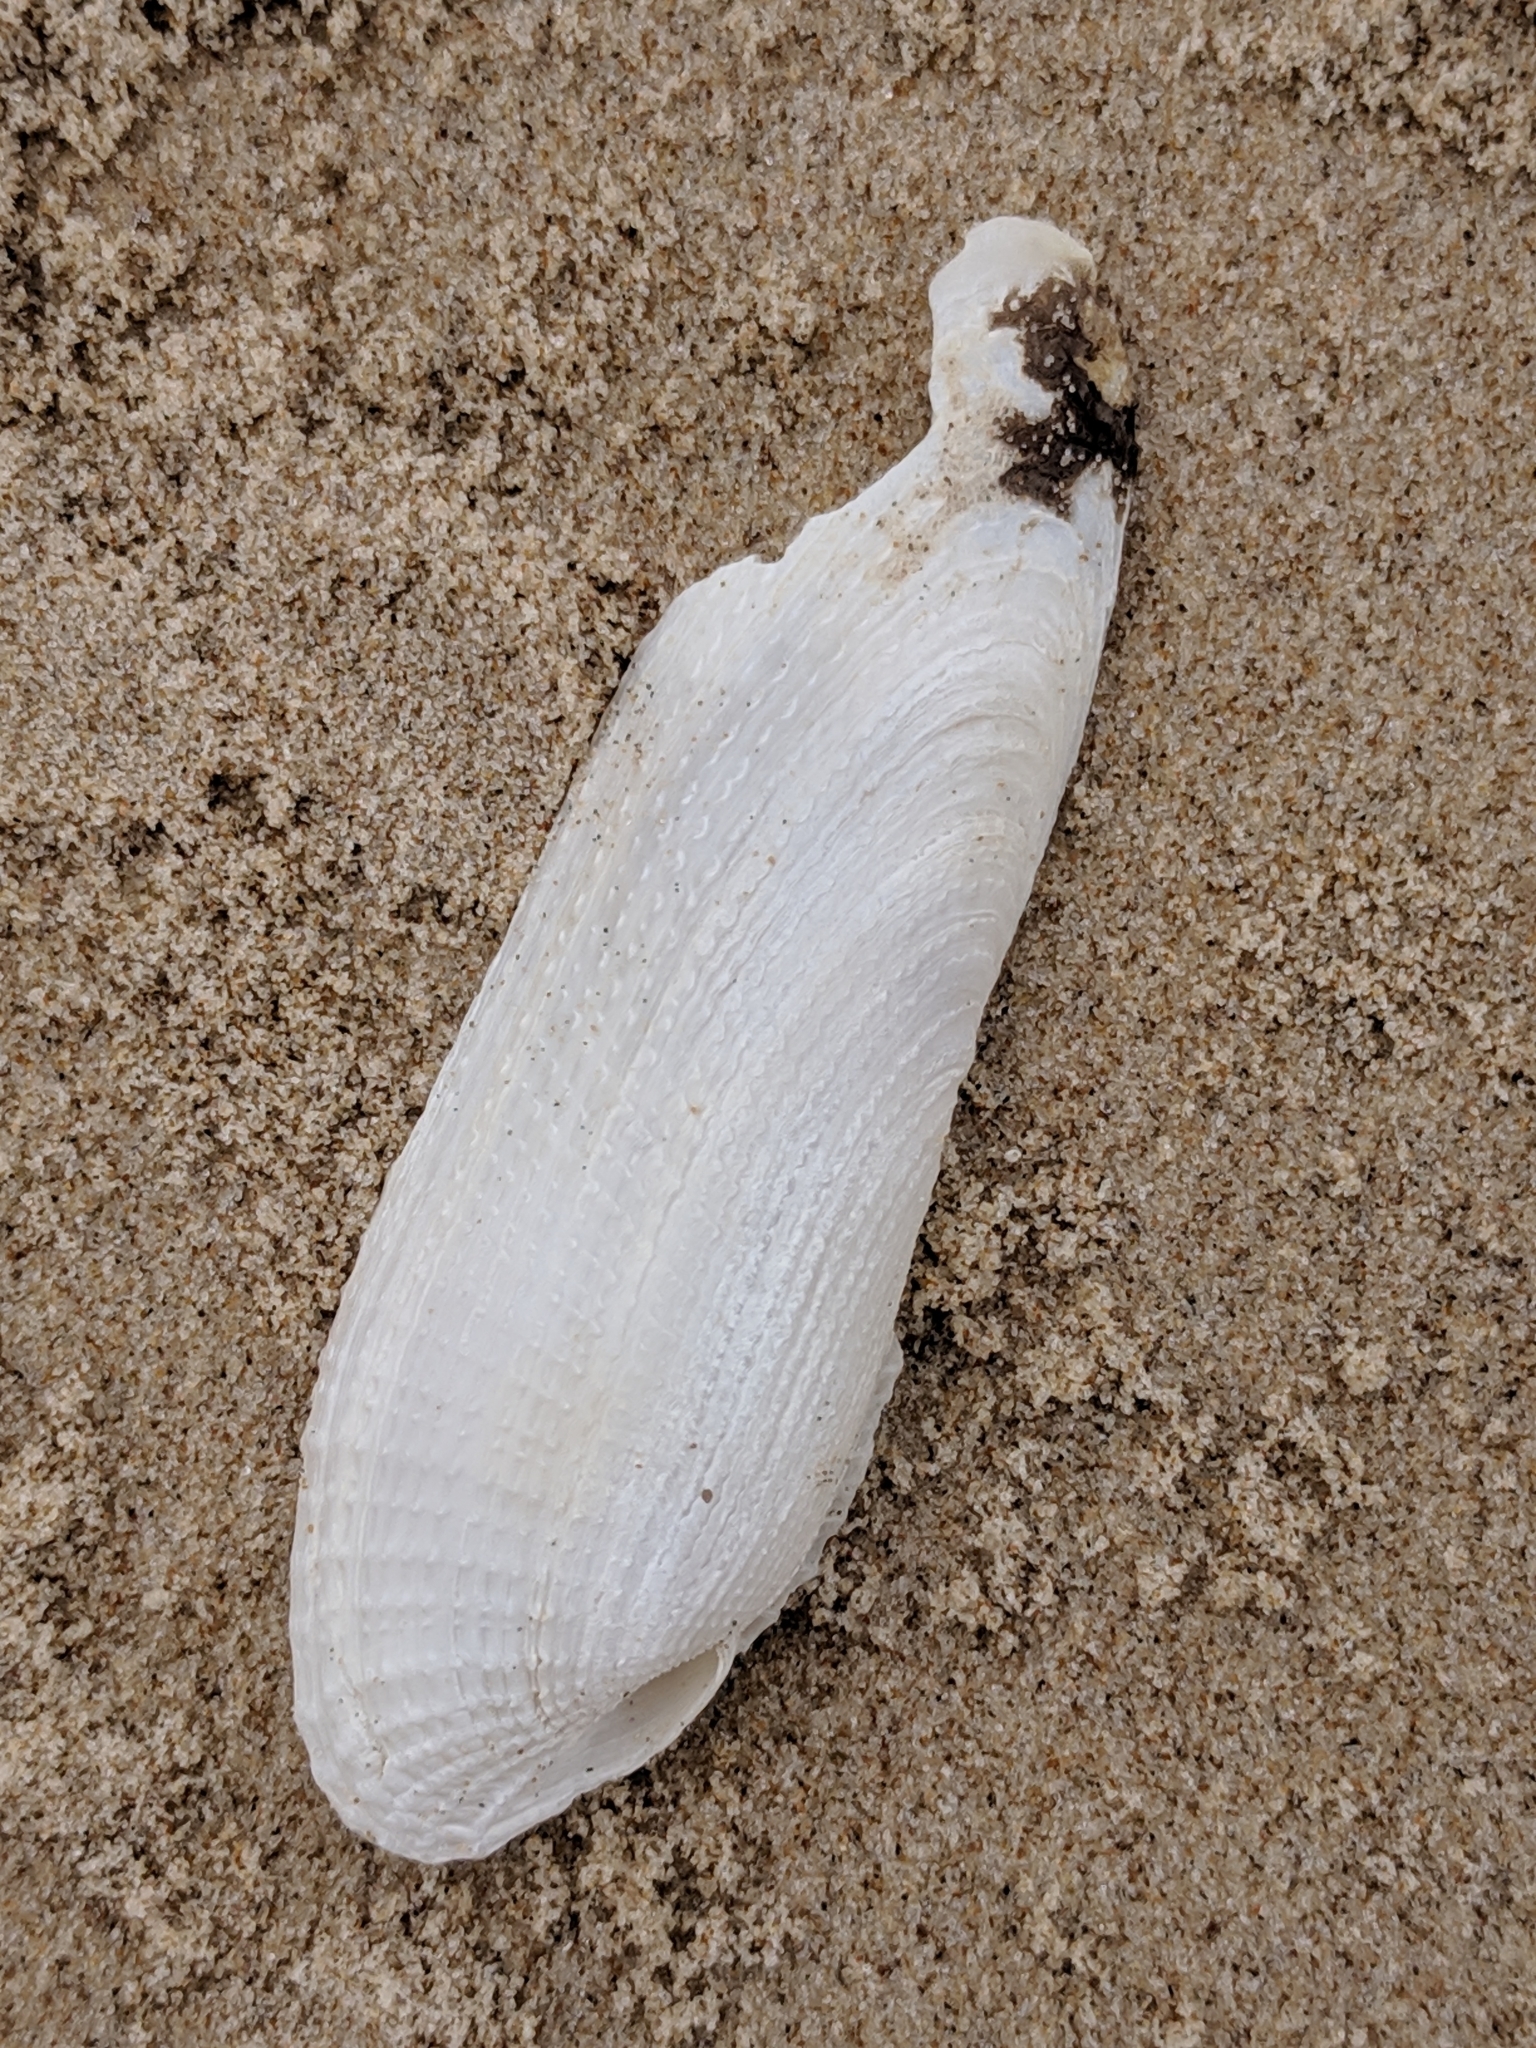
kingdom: Animalia
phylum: Mollusca
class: Bivalvia
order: Myida
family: Pholadidae
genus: Pholas
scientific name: Pholas campechiensis
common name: Campeche angel wing
